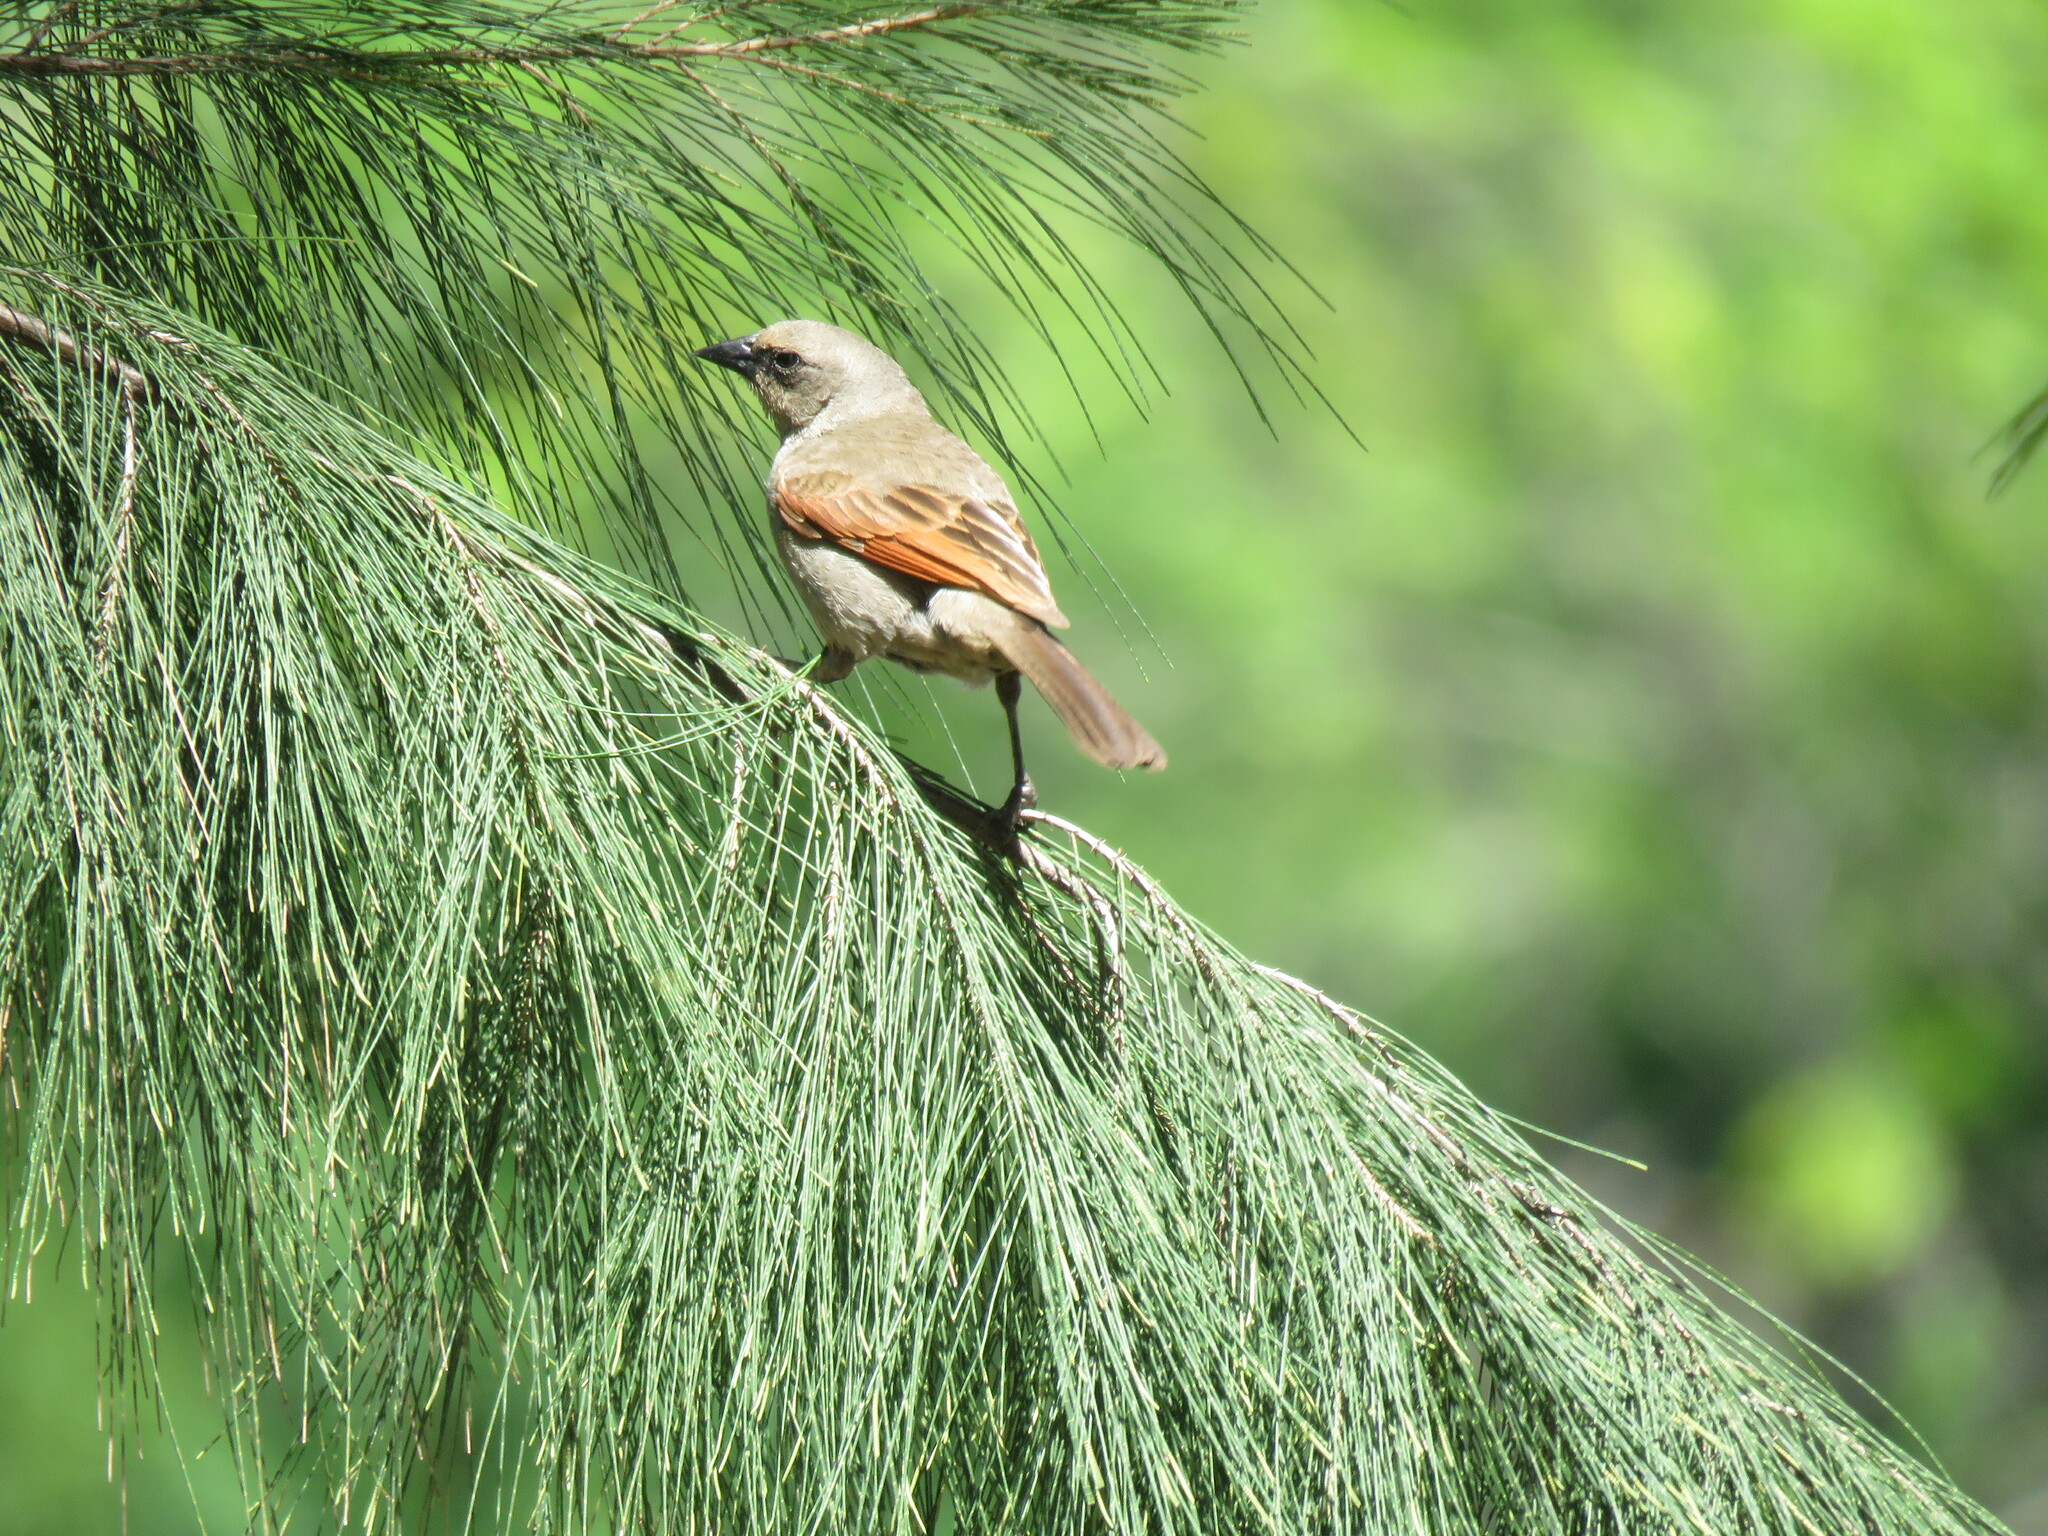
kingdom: Animalia
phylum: Chordata
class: Aves
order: Passeriformes
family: Icteridae
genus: Agelaioides
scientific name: Agelaioides badius
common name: Baywing
